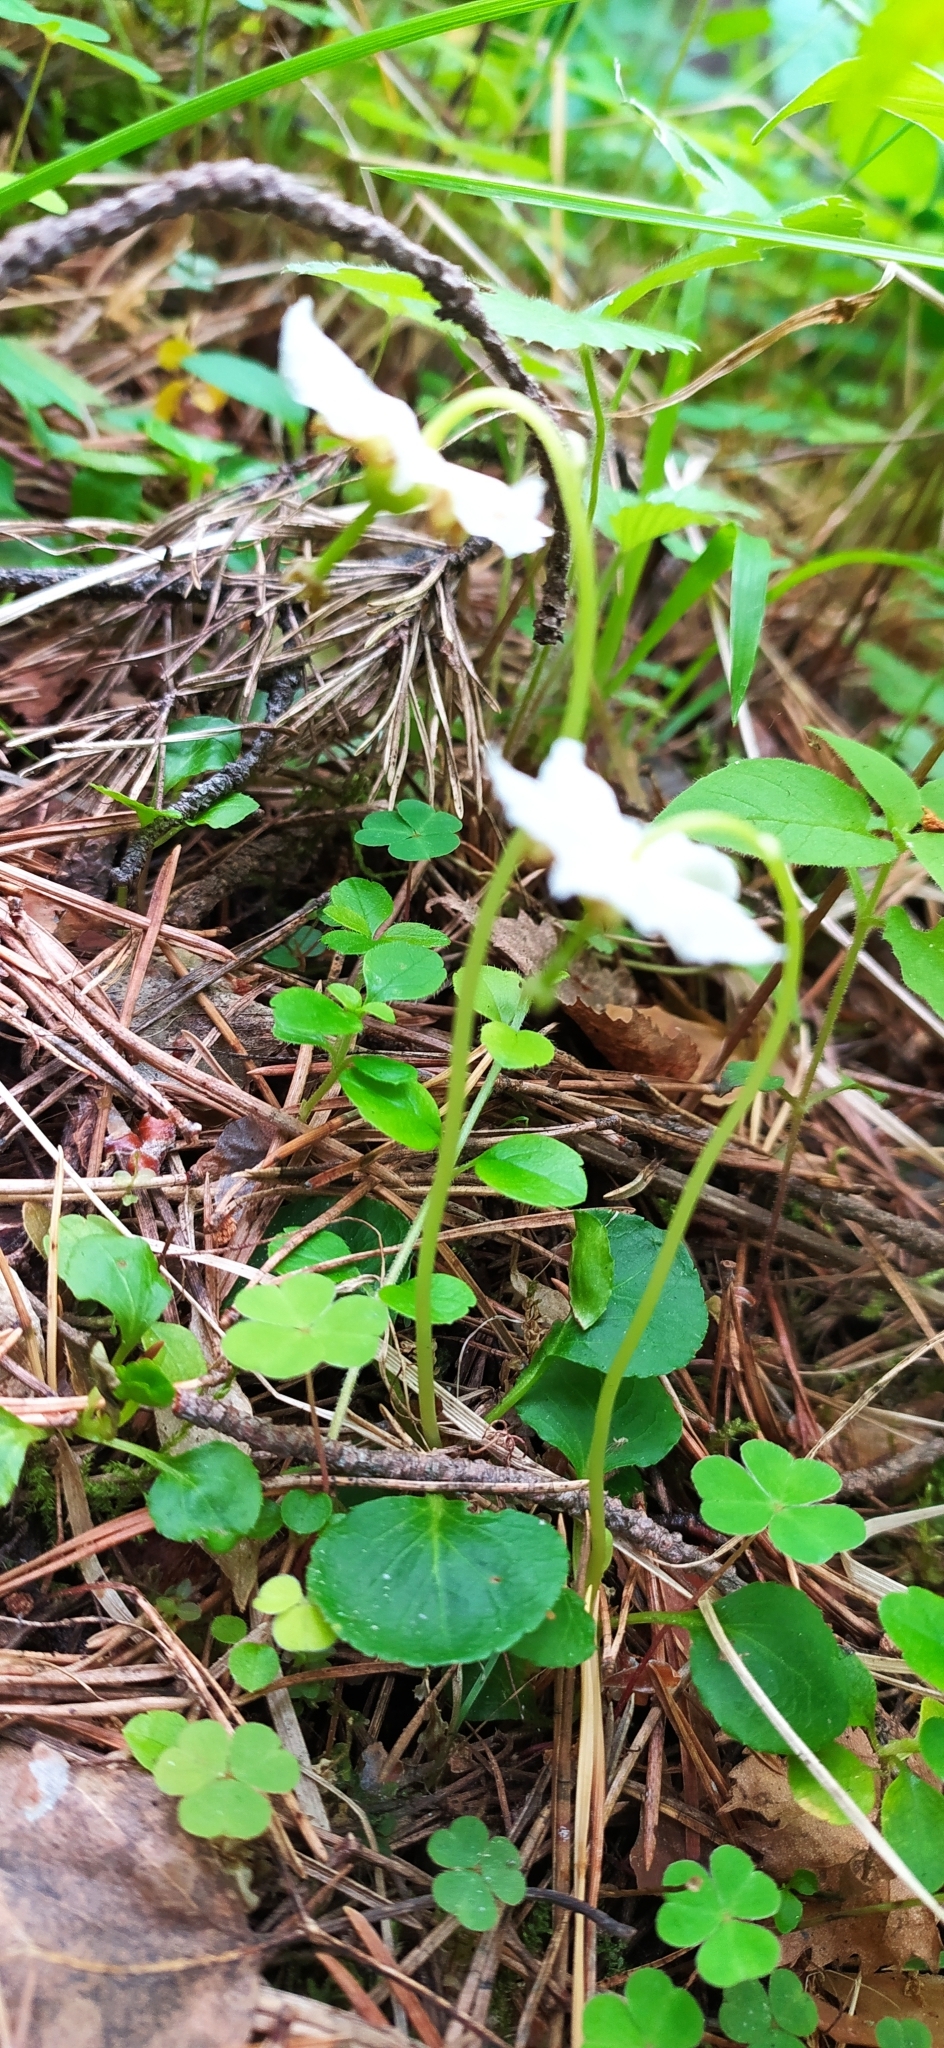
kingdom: Plantae
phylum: Tracheophyta
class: Magnoliopsida
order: Ericales
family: Ericaceae
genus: Moneses
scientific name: Moneses uniflora
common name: One-flowered wintergreen
